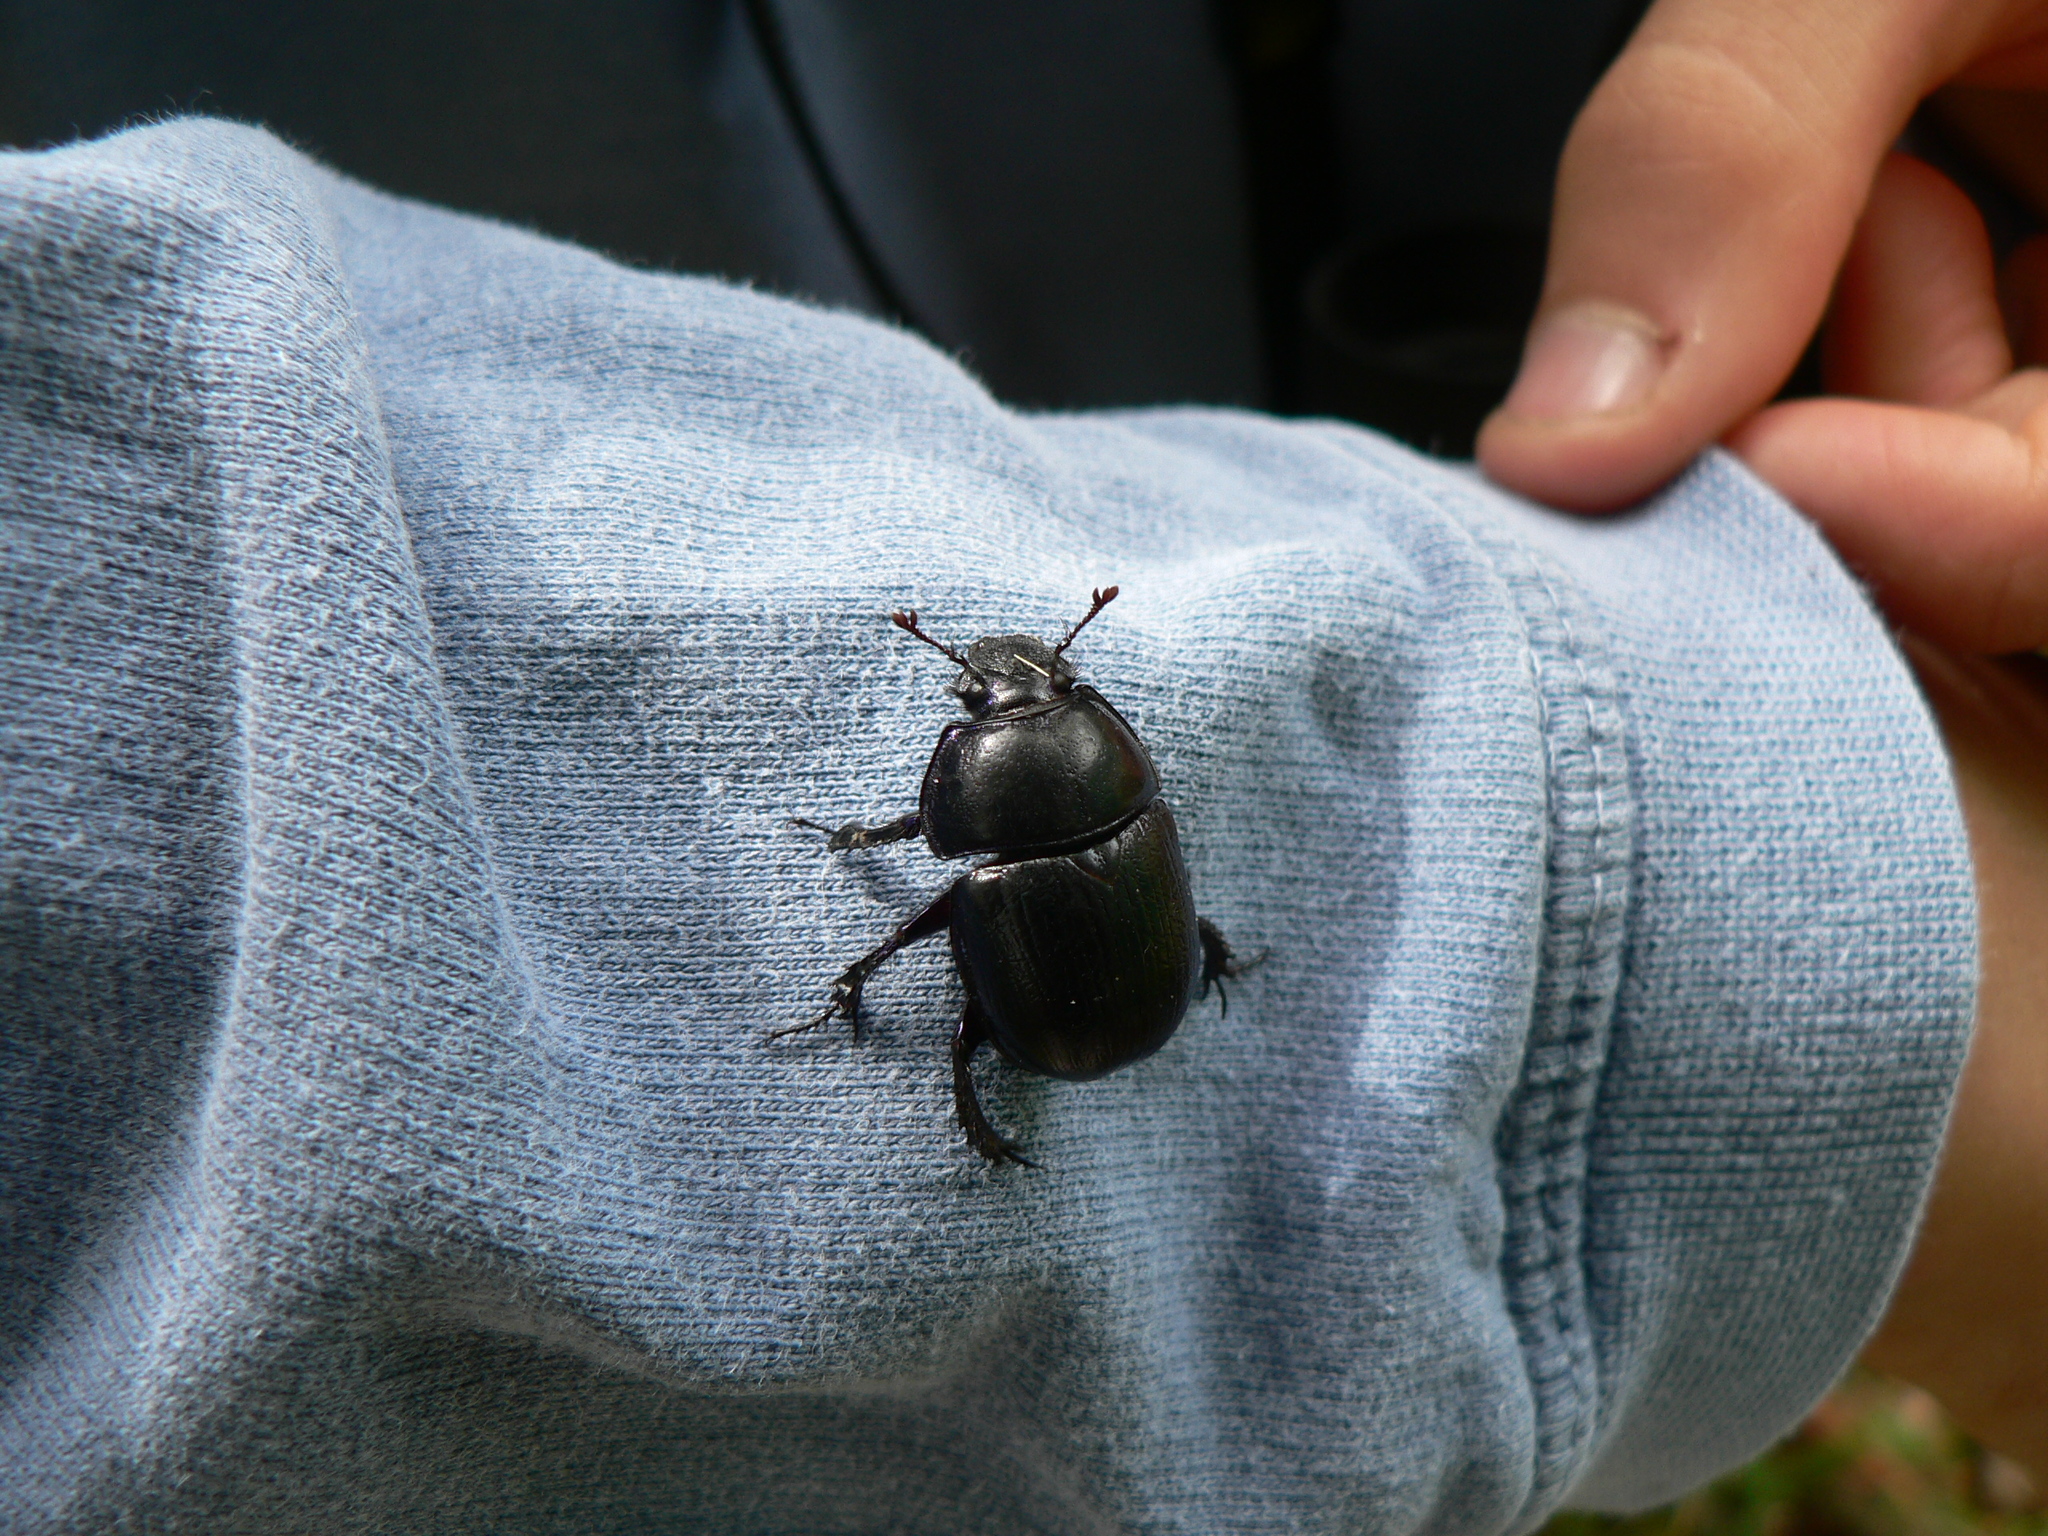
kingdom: Animalia
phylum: Arthropoda
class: Insecta
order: Coleoptera
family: Geotrupidae
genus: Anoplotrupes
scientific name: Anoplotrupes stercorosus
